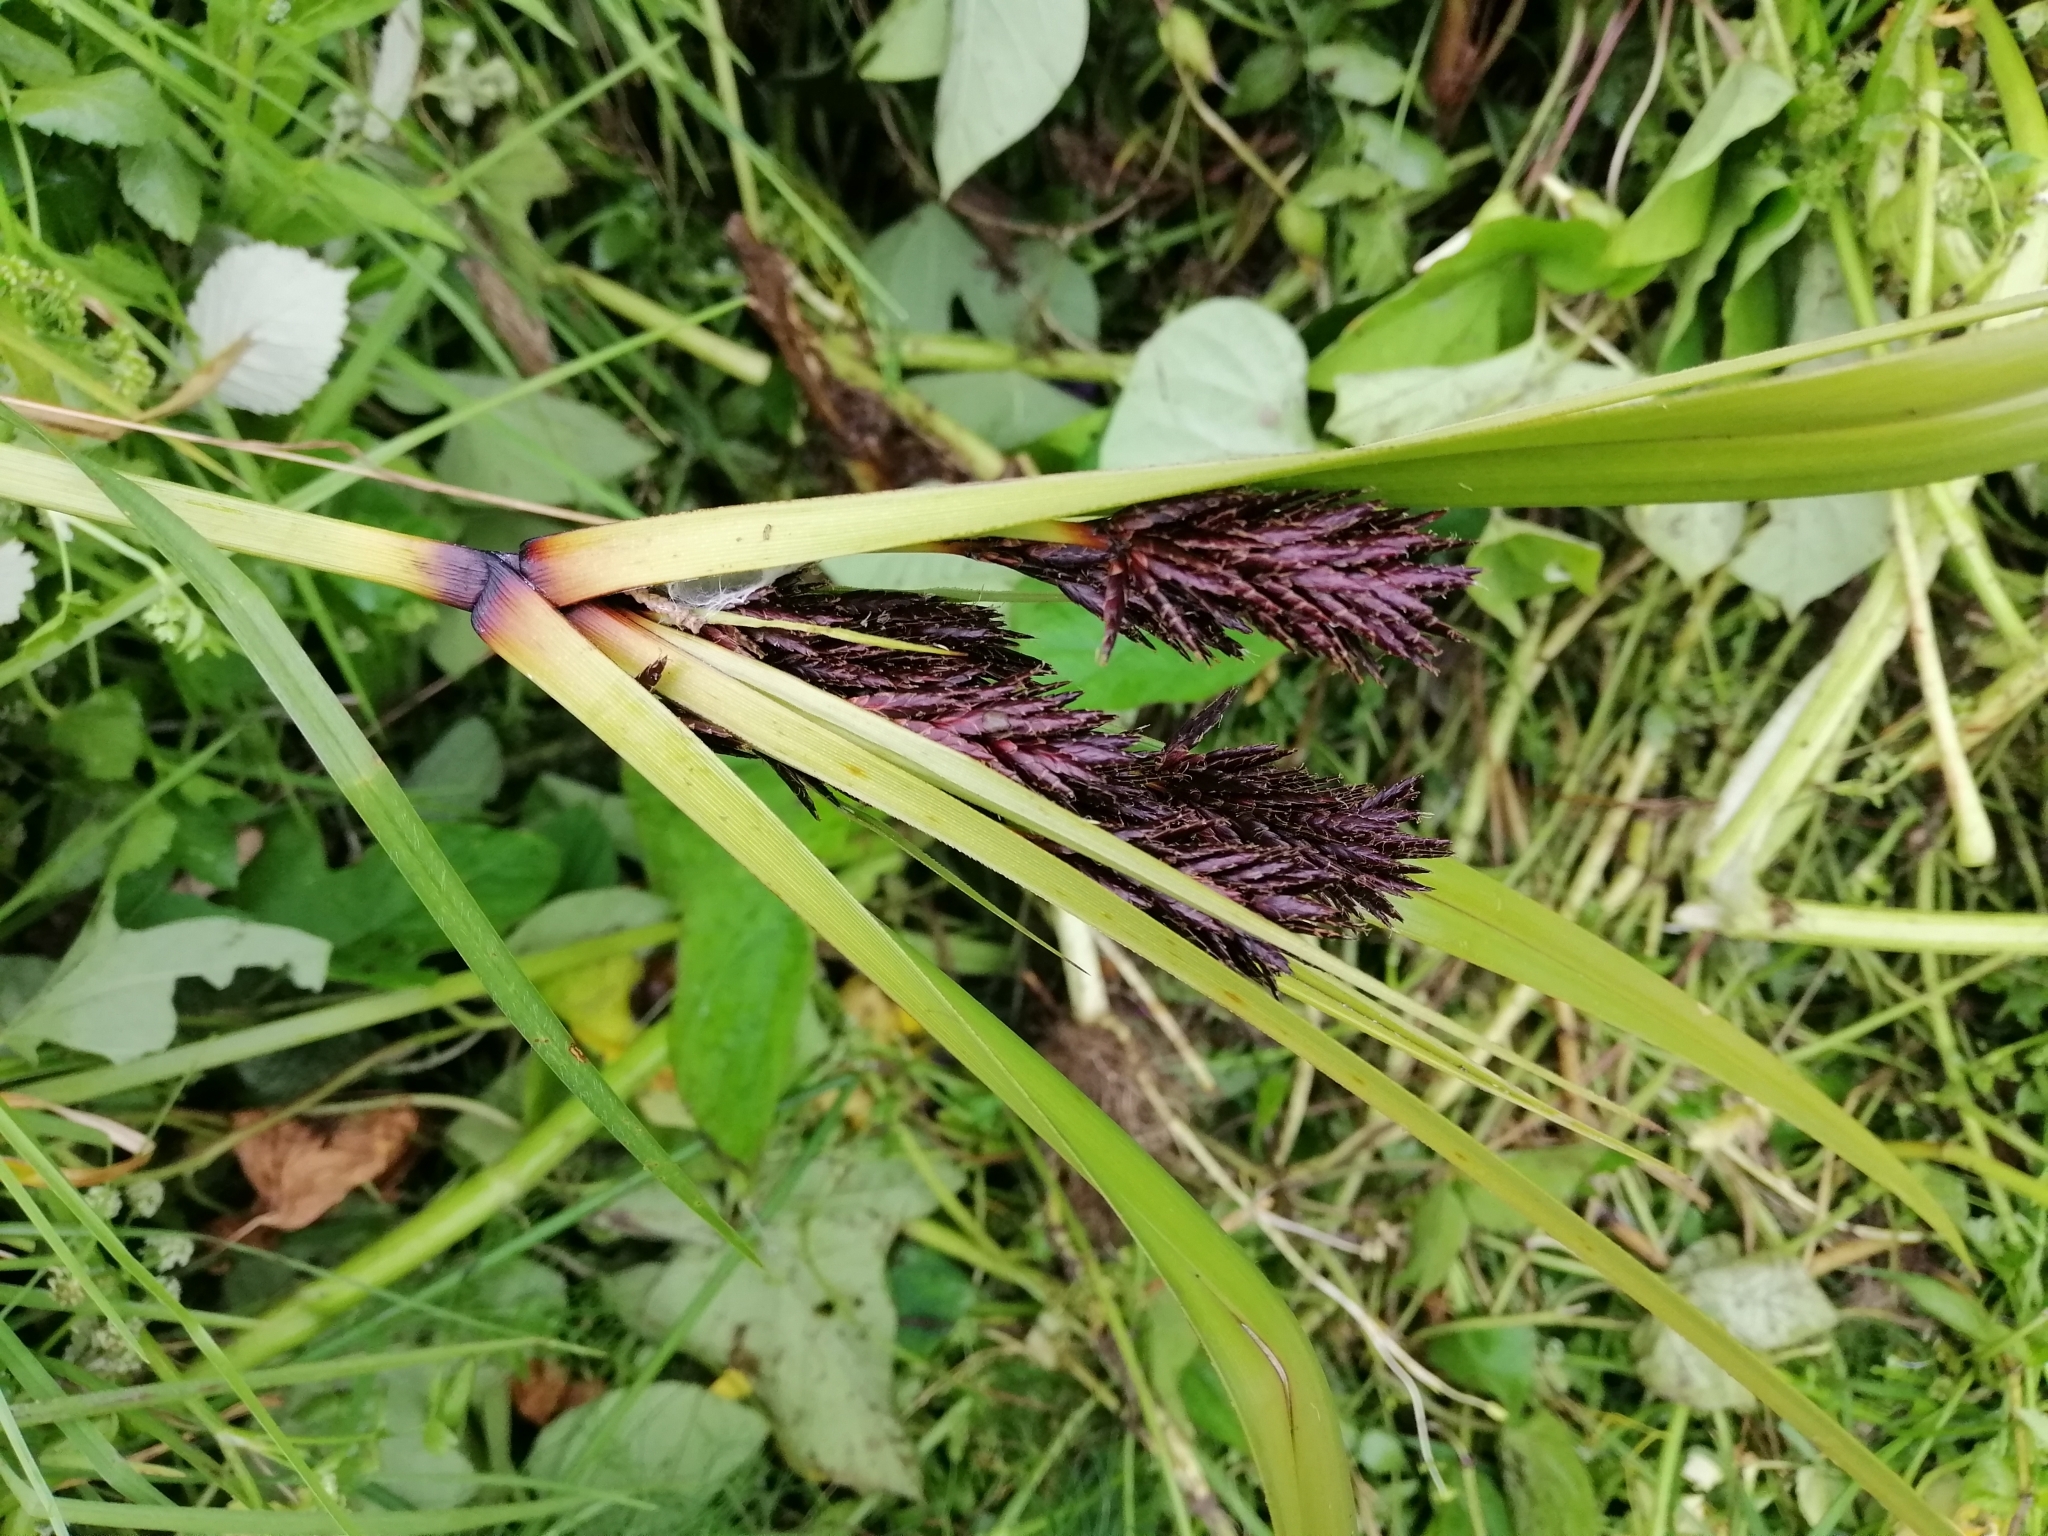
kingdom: Plantae
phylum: Tracheophyta
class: Liliopsida
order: Poales
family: Cyperaceae
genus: Cyperus
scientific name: Cyperus ustulatus
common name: Giant umbrella-sedge
